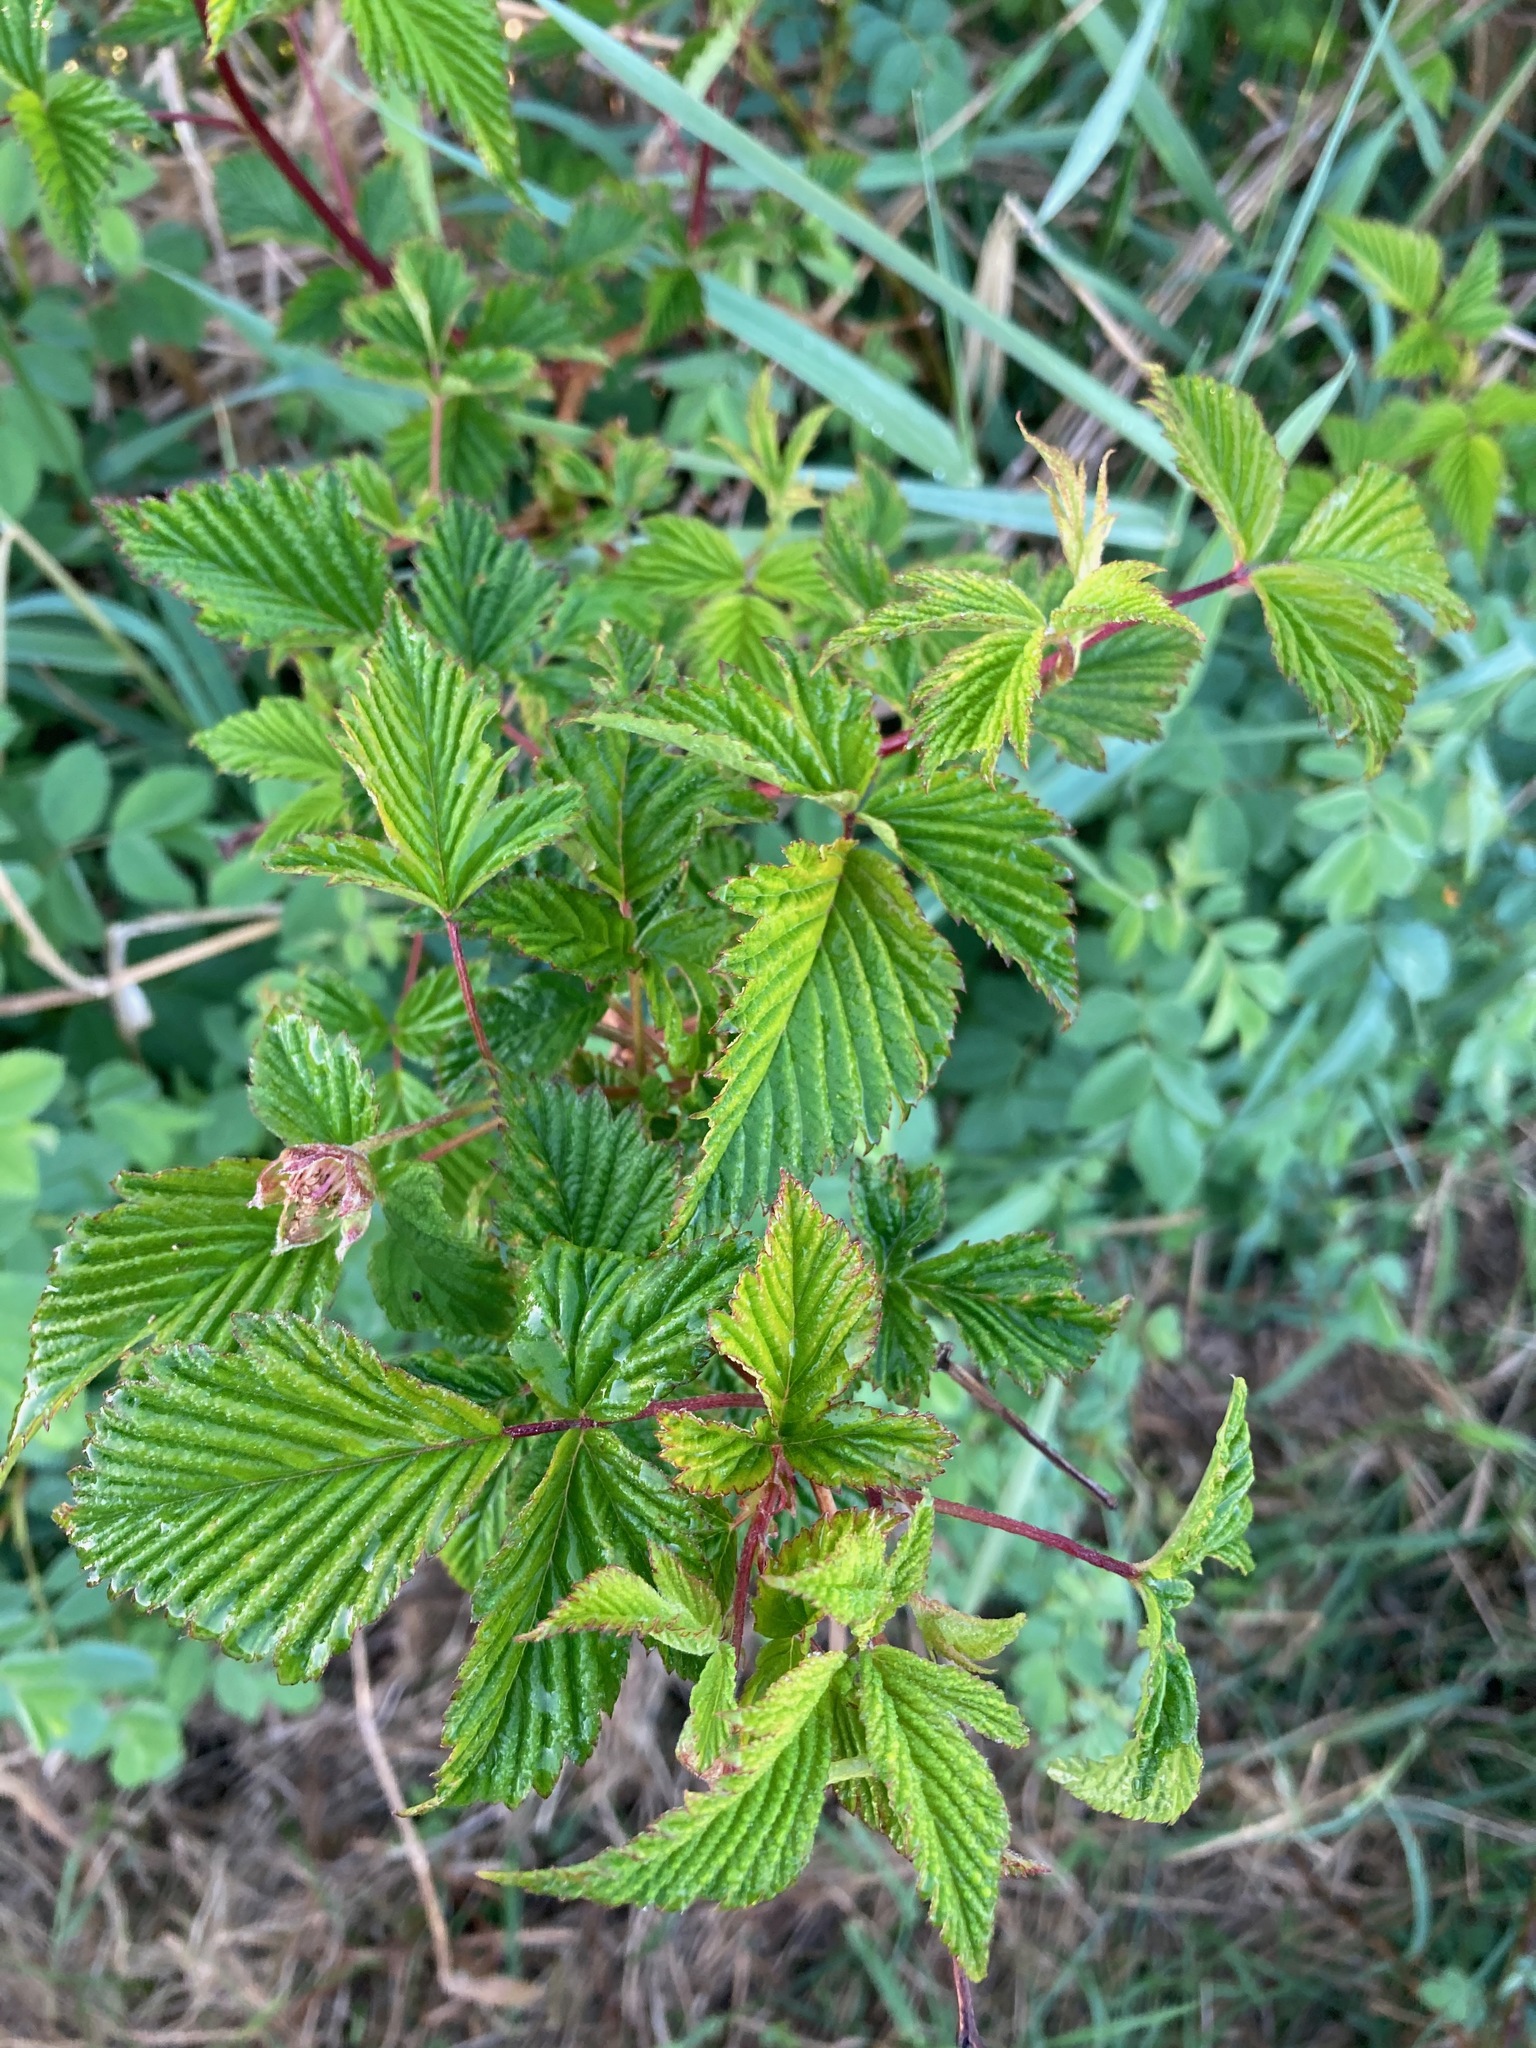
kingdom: Plantae
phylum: Tracheophyta
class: Magnoliopsida
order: Rosales
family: Rosaceae
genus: Rubus
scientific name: Rubus spectabilis
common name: Salmonberry
